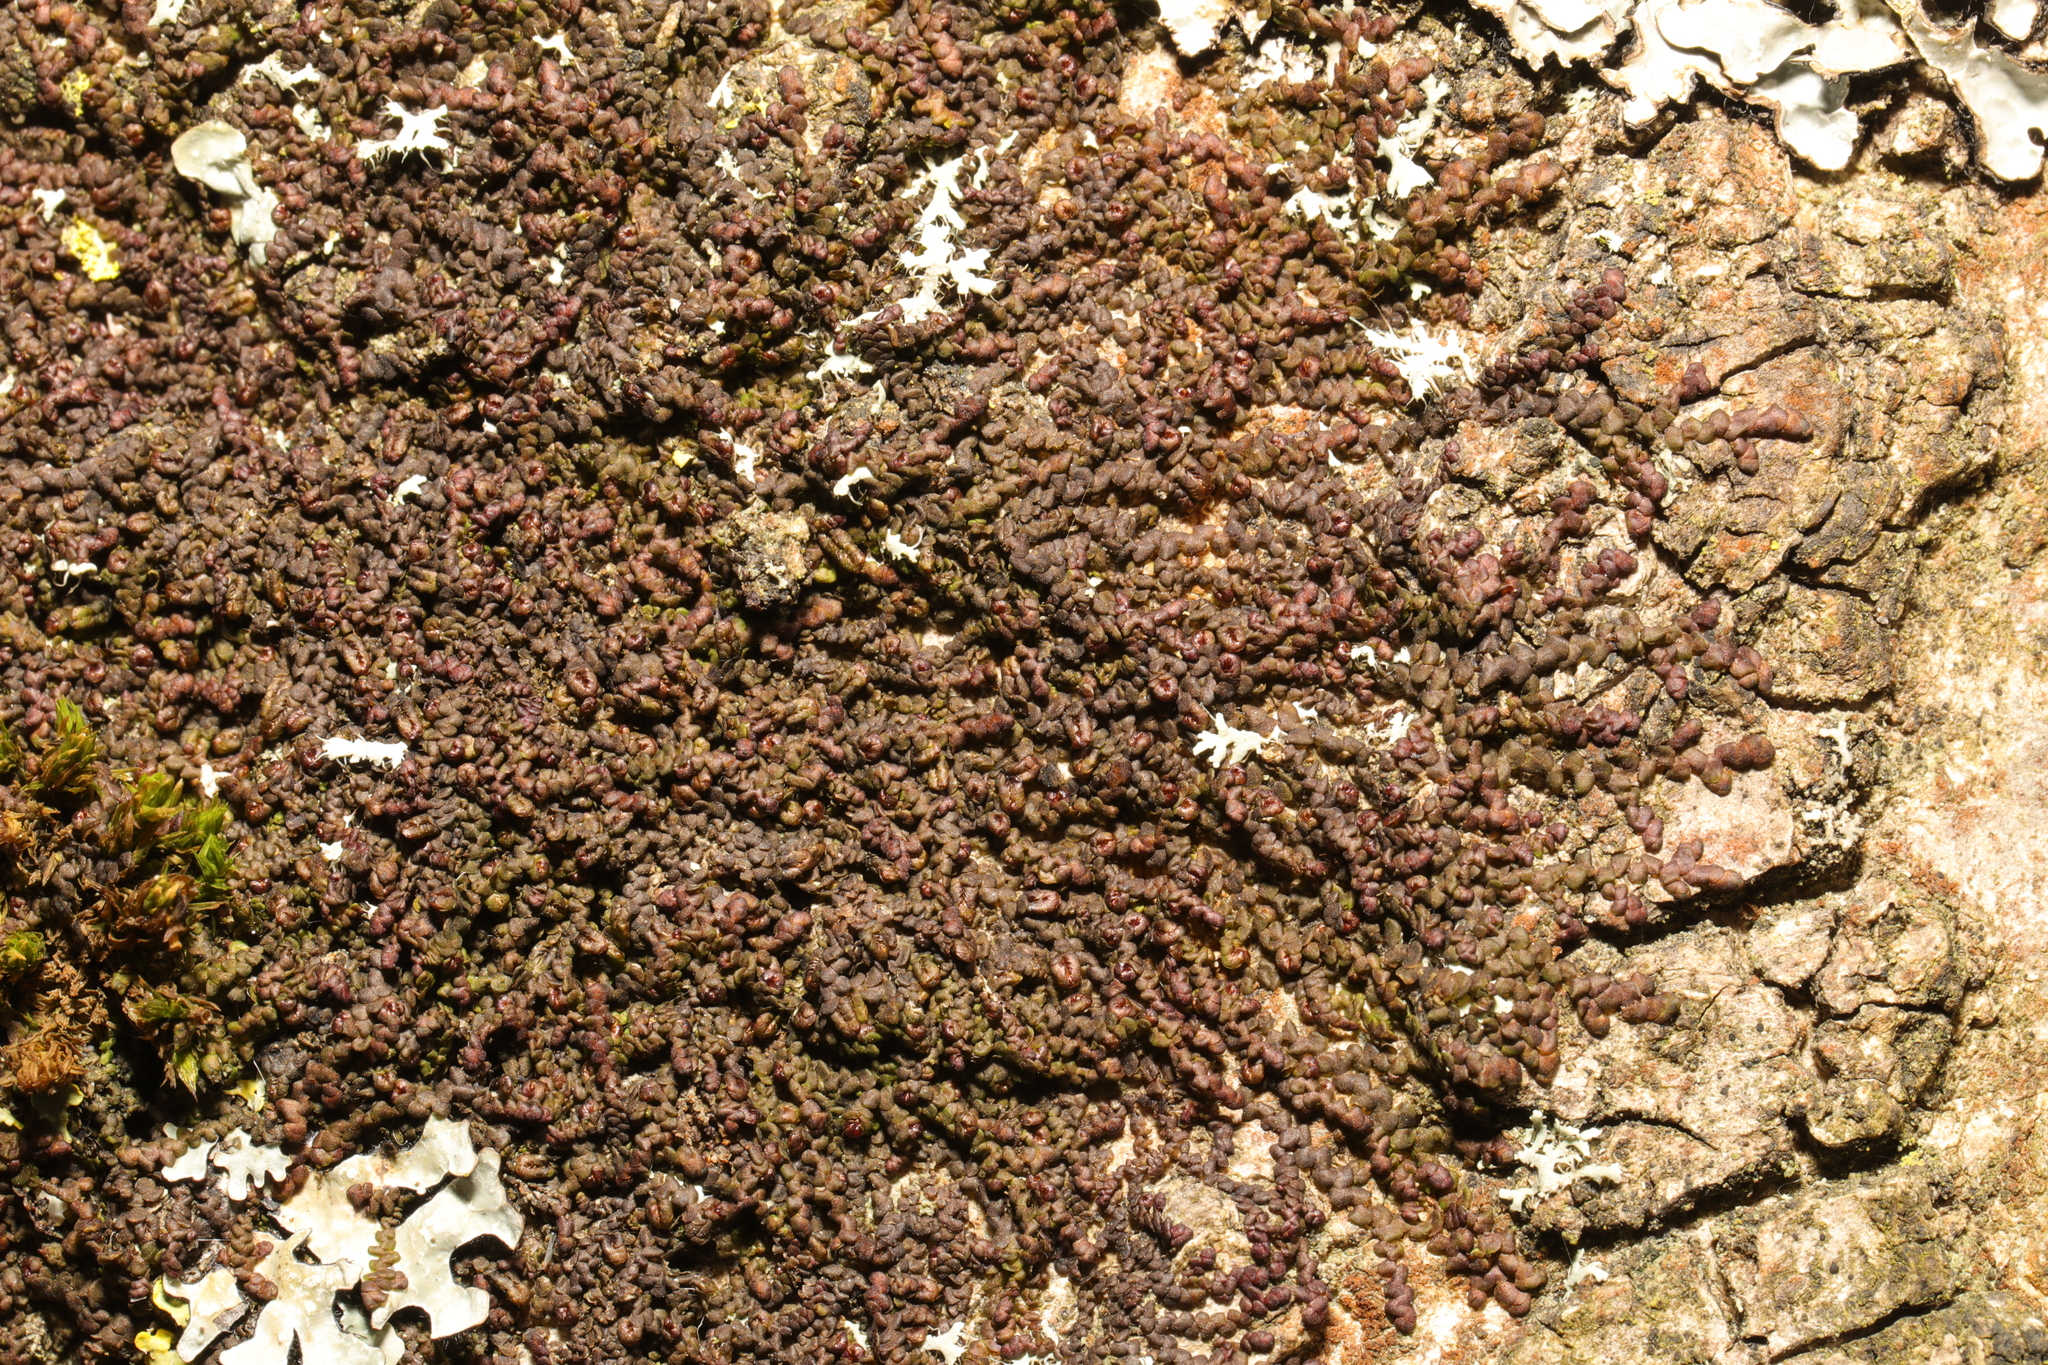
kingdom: Plantae
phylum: Marchantiophyta
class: Jungermanniopsida
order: Porellales
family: Frullaniaceae
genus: Frullania
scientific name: Frullania dilatata
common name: Dilated scalewort
